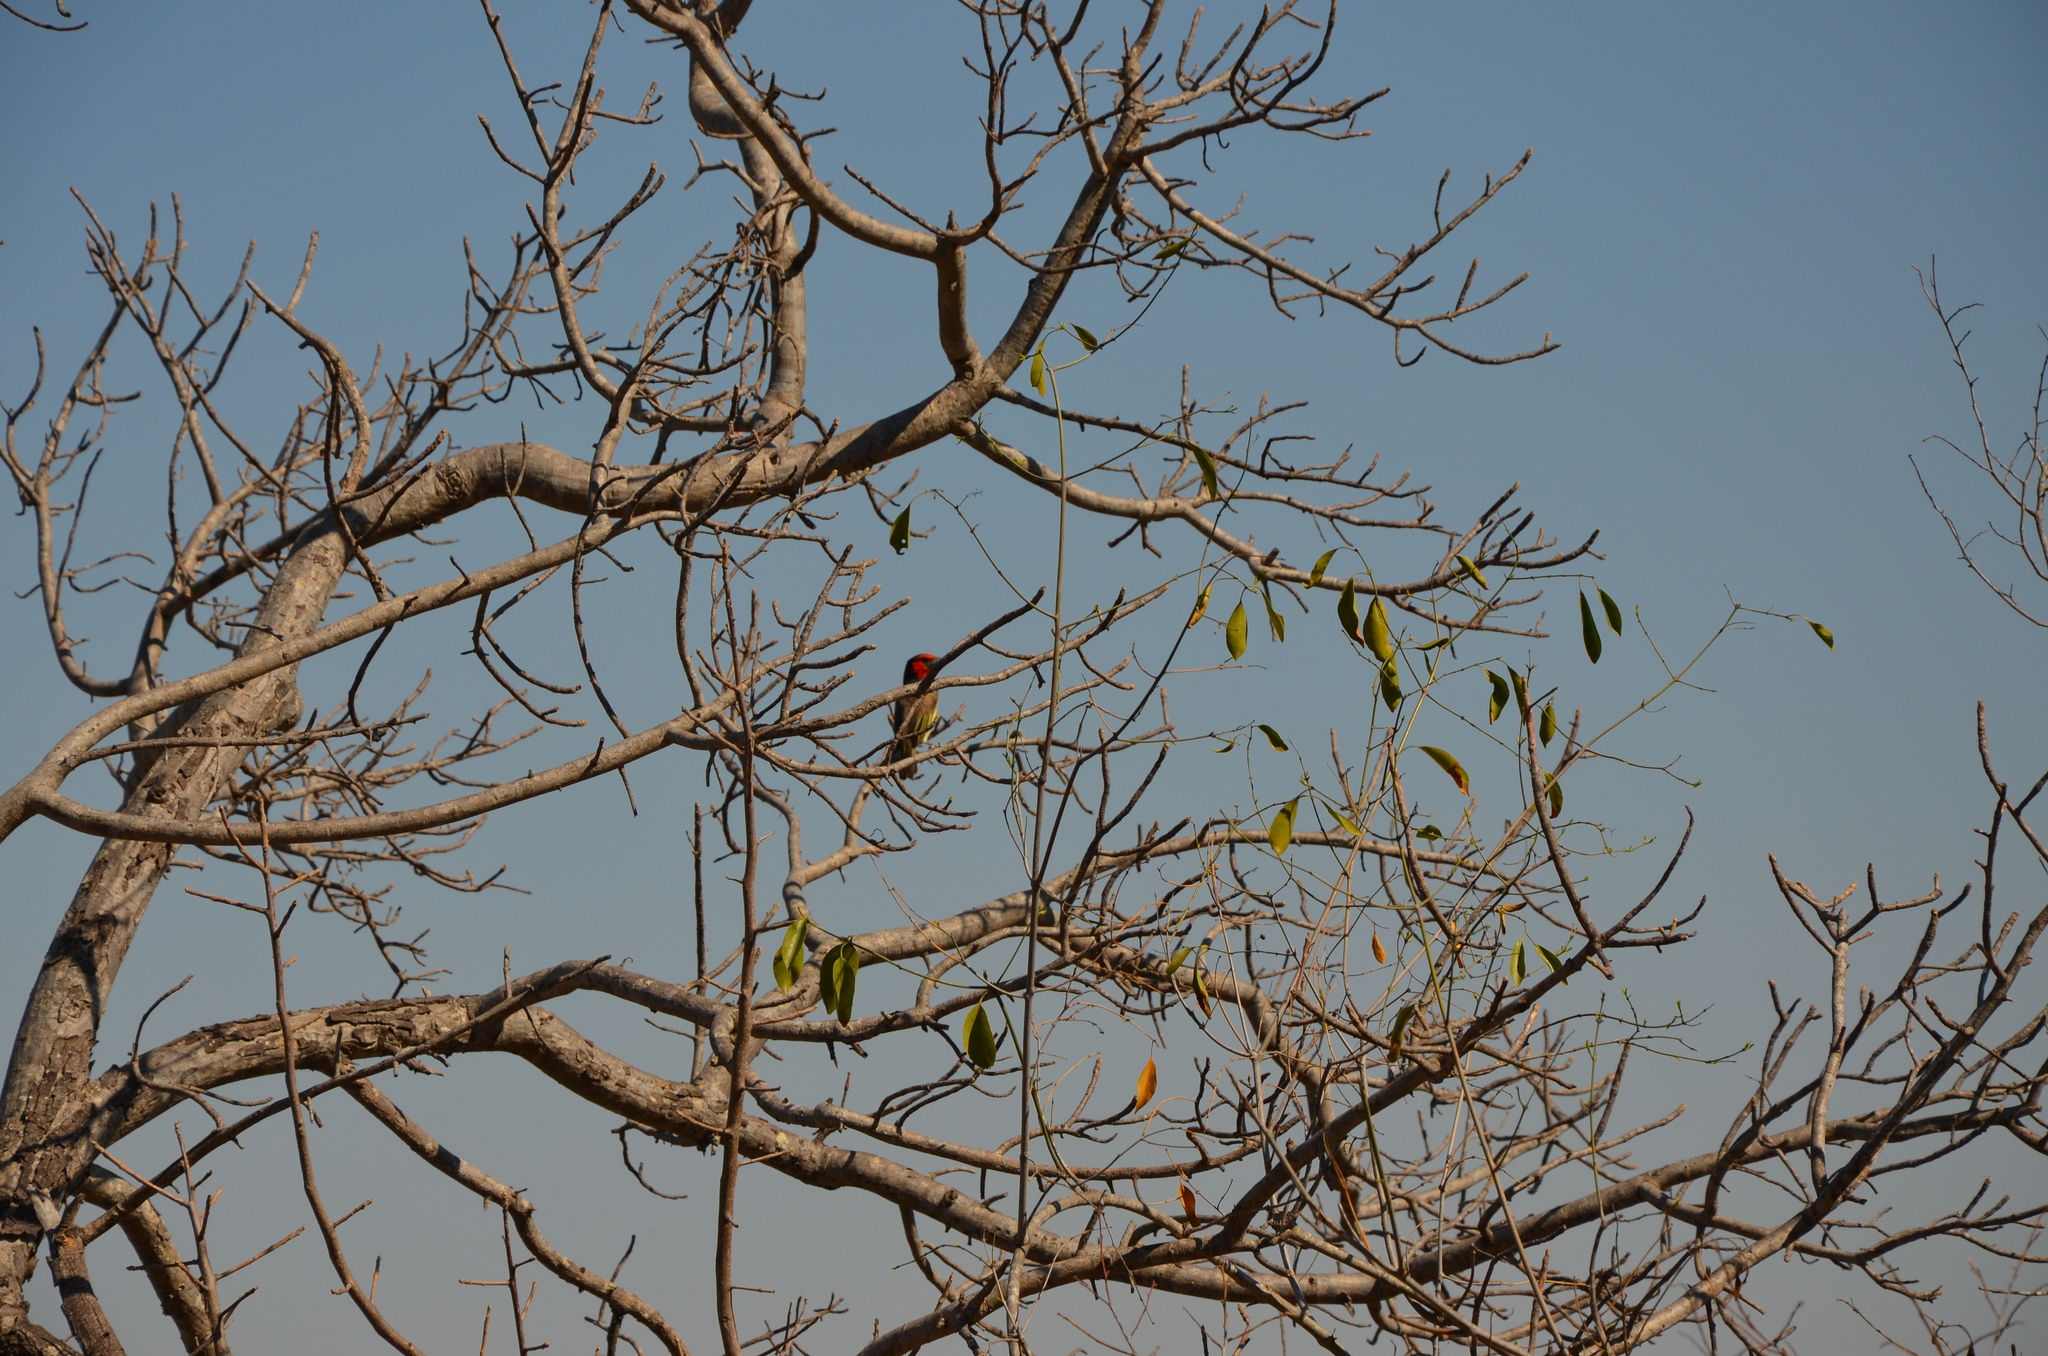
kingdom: Animalia
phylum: Chordata
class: Aves
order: Piciformes
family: Lybiidae
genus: Lybius
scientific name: Lybius torquatus
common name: Black-collared barbet
